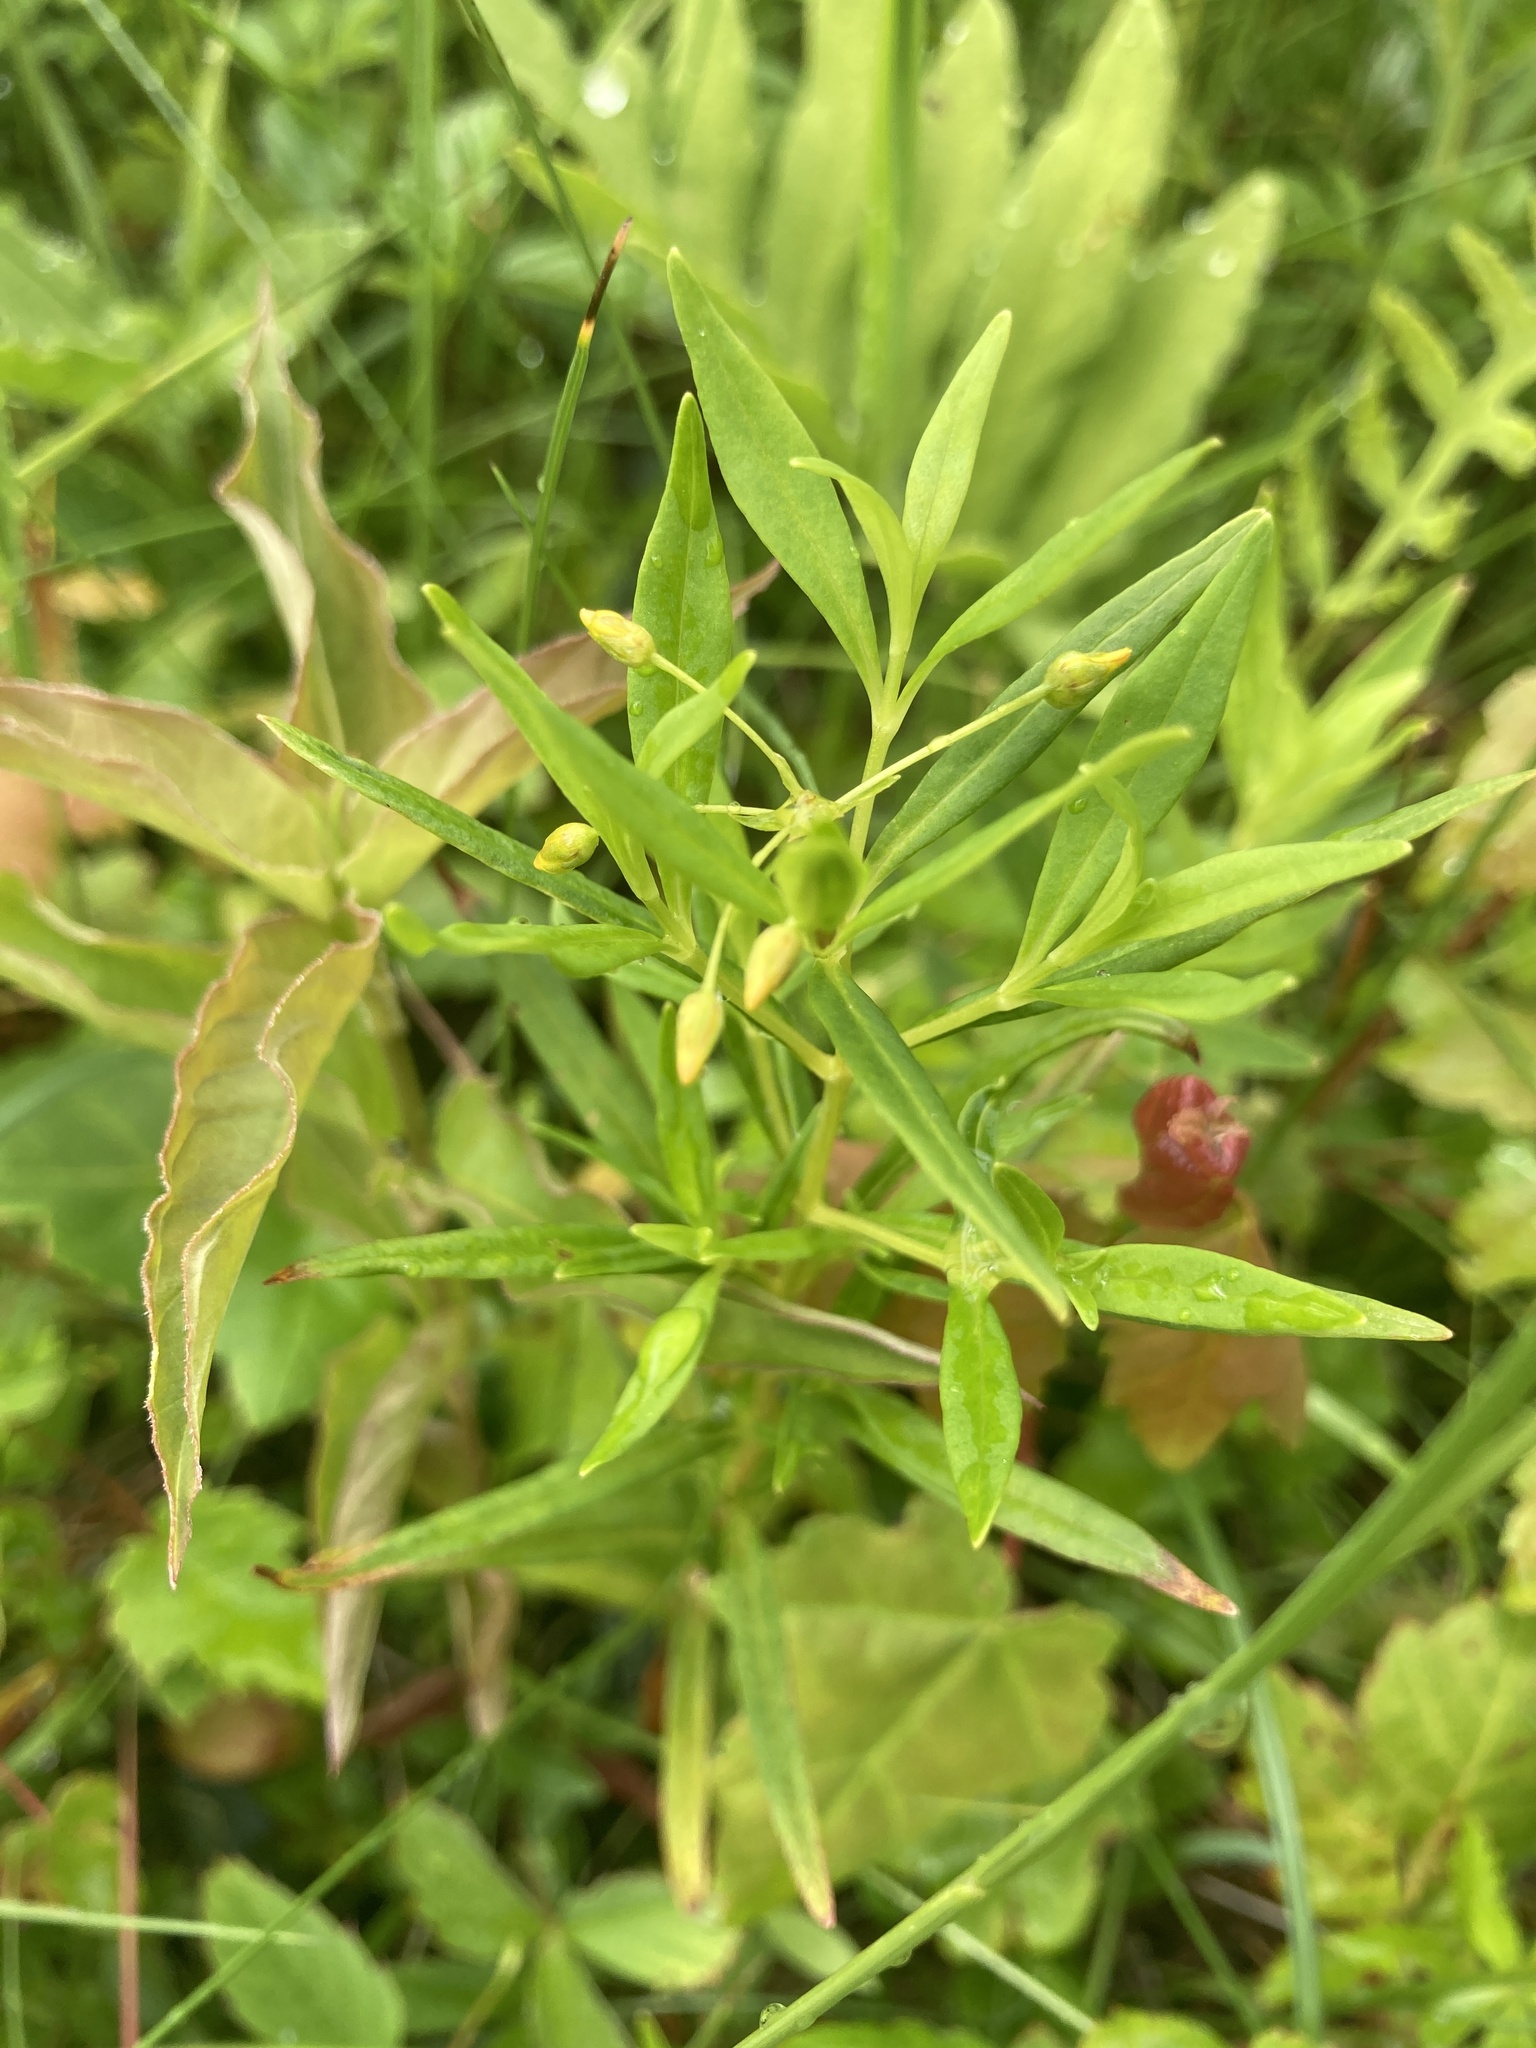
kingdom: Plantae
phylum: Tracheophyta
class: Magnoliopsida
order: Ericales
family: Primulaceae
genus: Lysimachia
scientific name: Lysimachia terrestris
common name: Lake loosestrife
